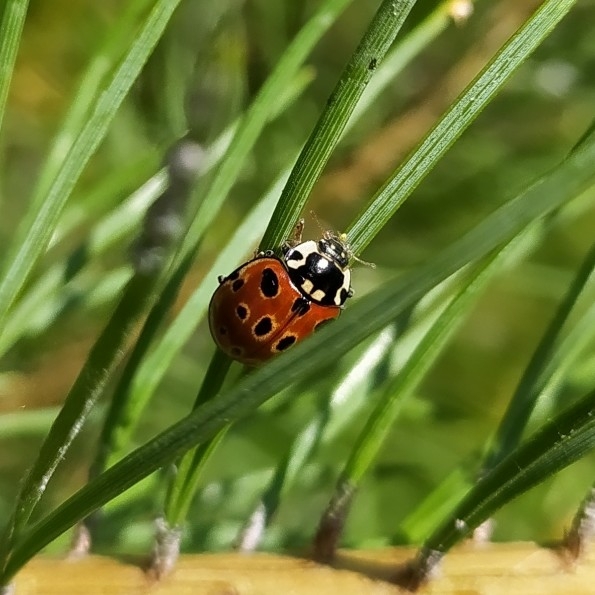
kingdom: Animalia
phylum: Arthropoda
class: Insecta
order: Coleoptera
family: Coccinellidae
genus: Anatis
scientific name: Anatis ocellata
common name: Eyed ladybird
